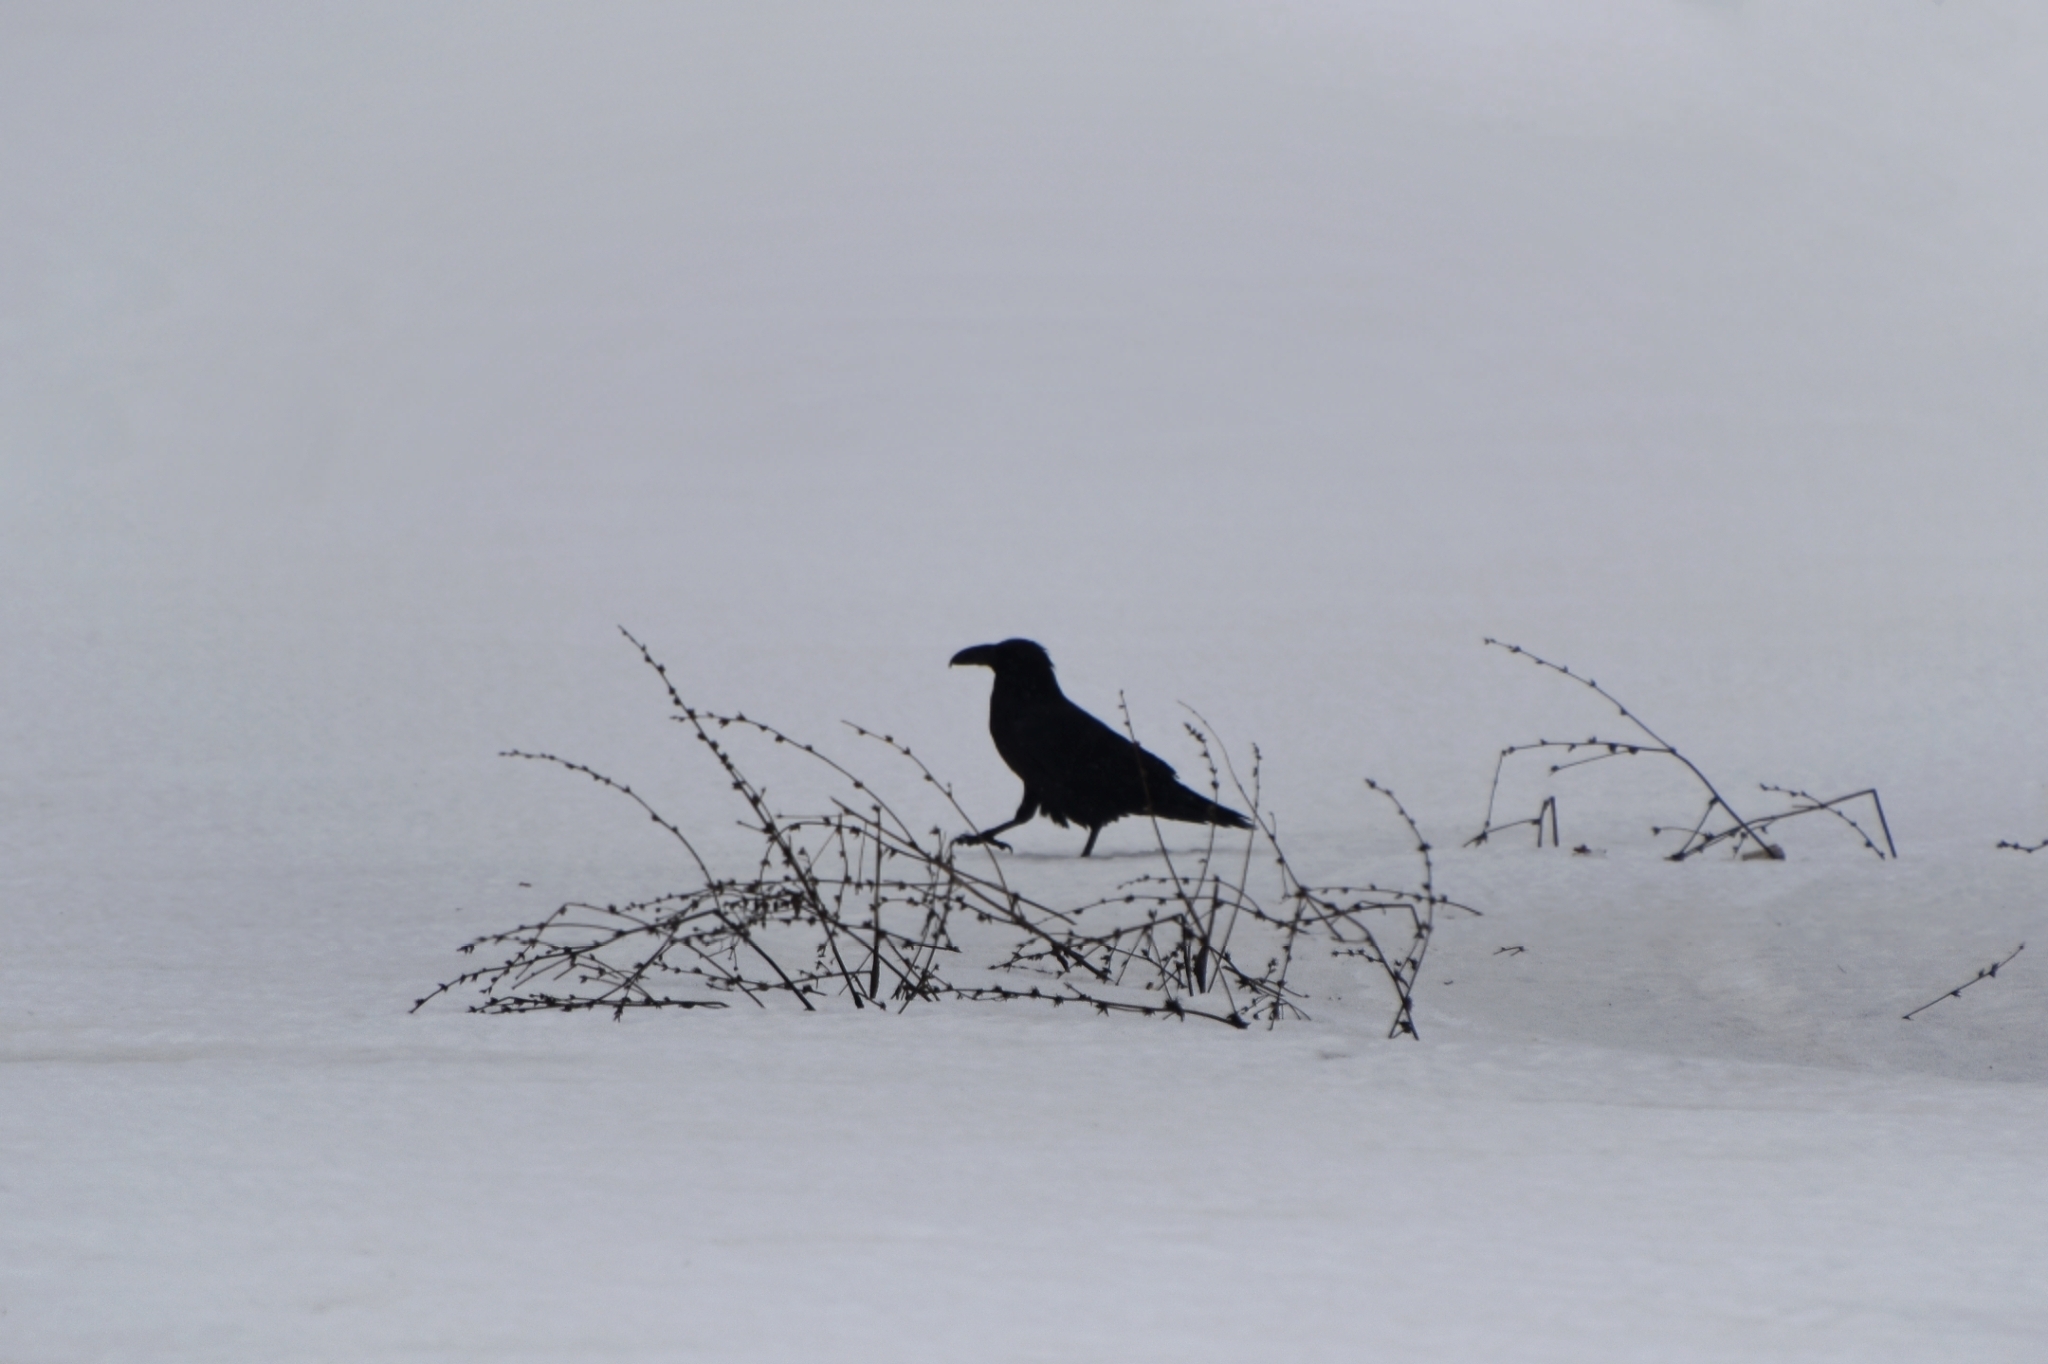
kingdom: Animalia
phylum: Chordata
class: Aves
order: Passeriformes
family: Corvidae
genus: Corvus
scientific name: Corvus corax
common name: Common raven
